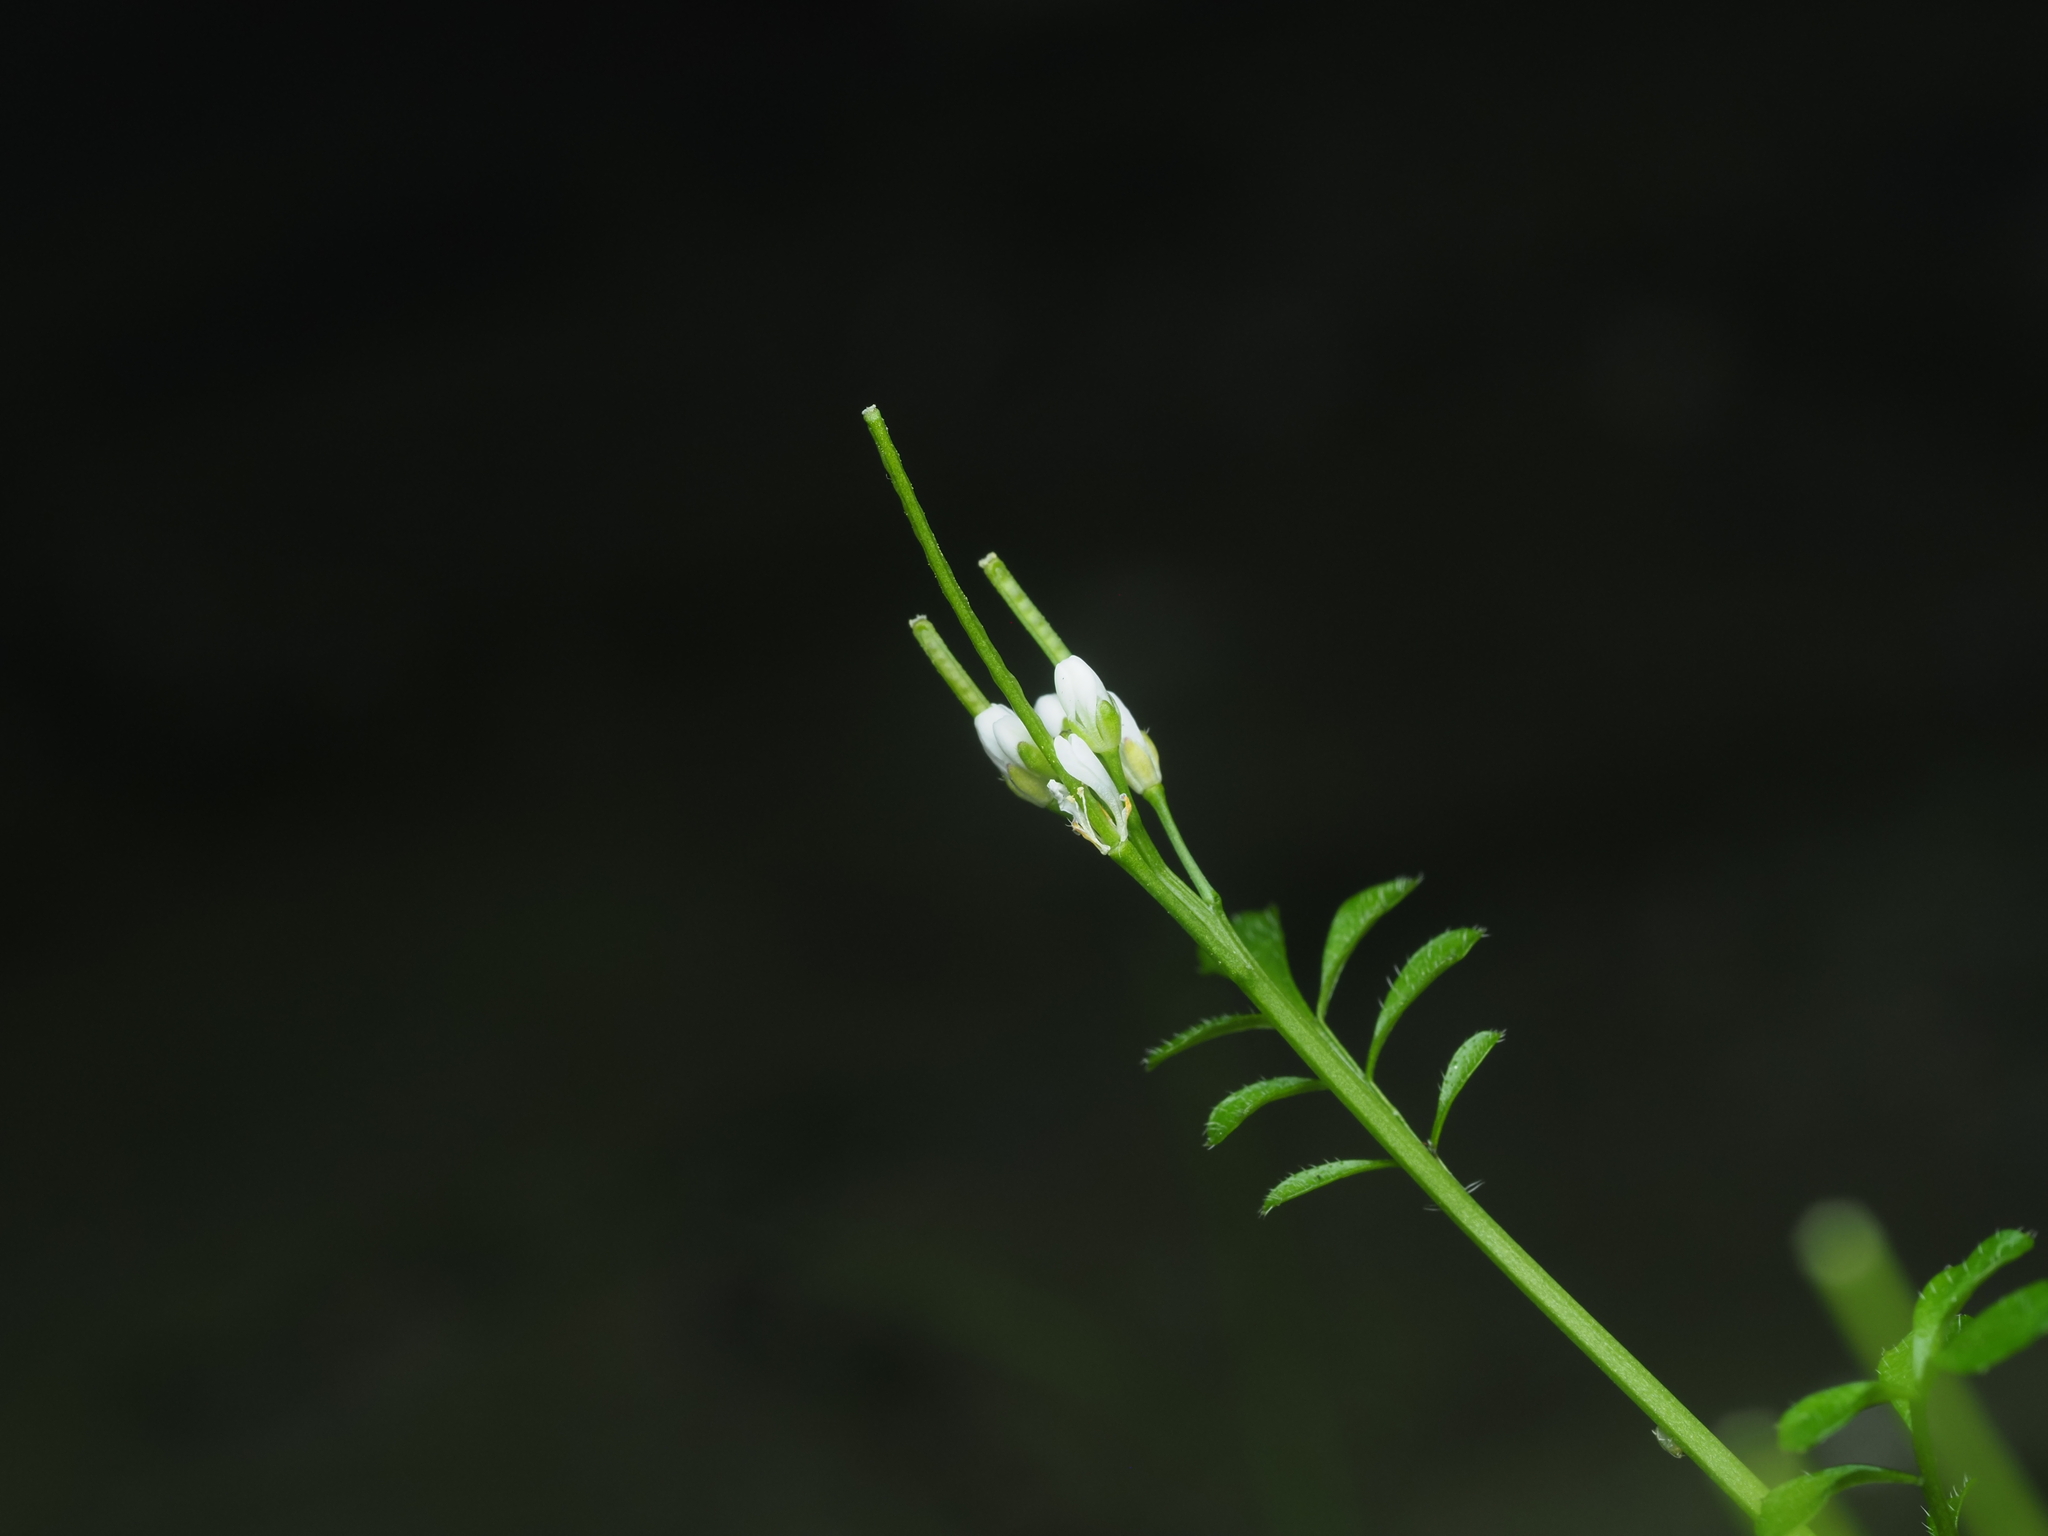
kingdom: Plantae
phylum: Tracheophyta
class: Magnoliopsida
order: Brassicales
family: Brassicaceae
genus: Cardamine
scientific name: Cardamine hirsuta
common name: Hairy bittercress
